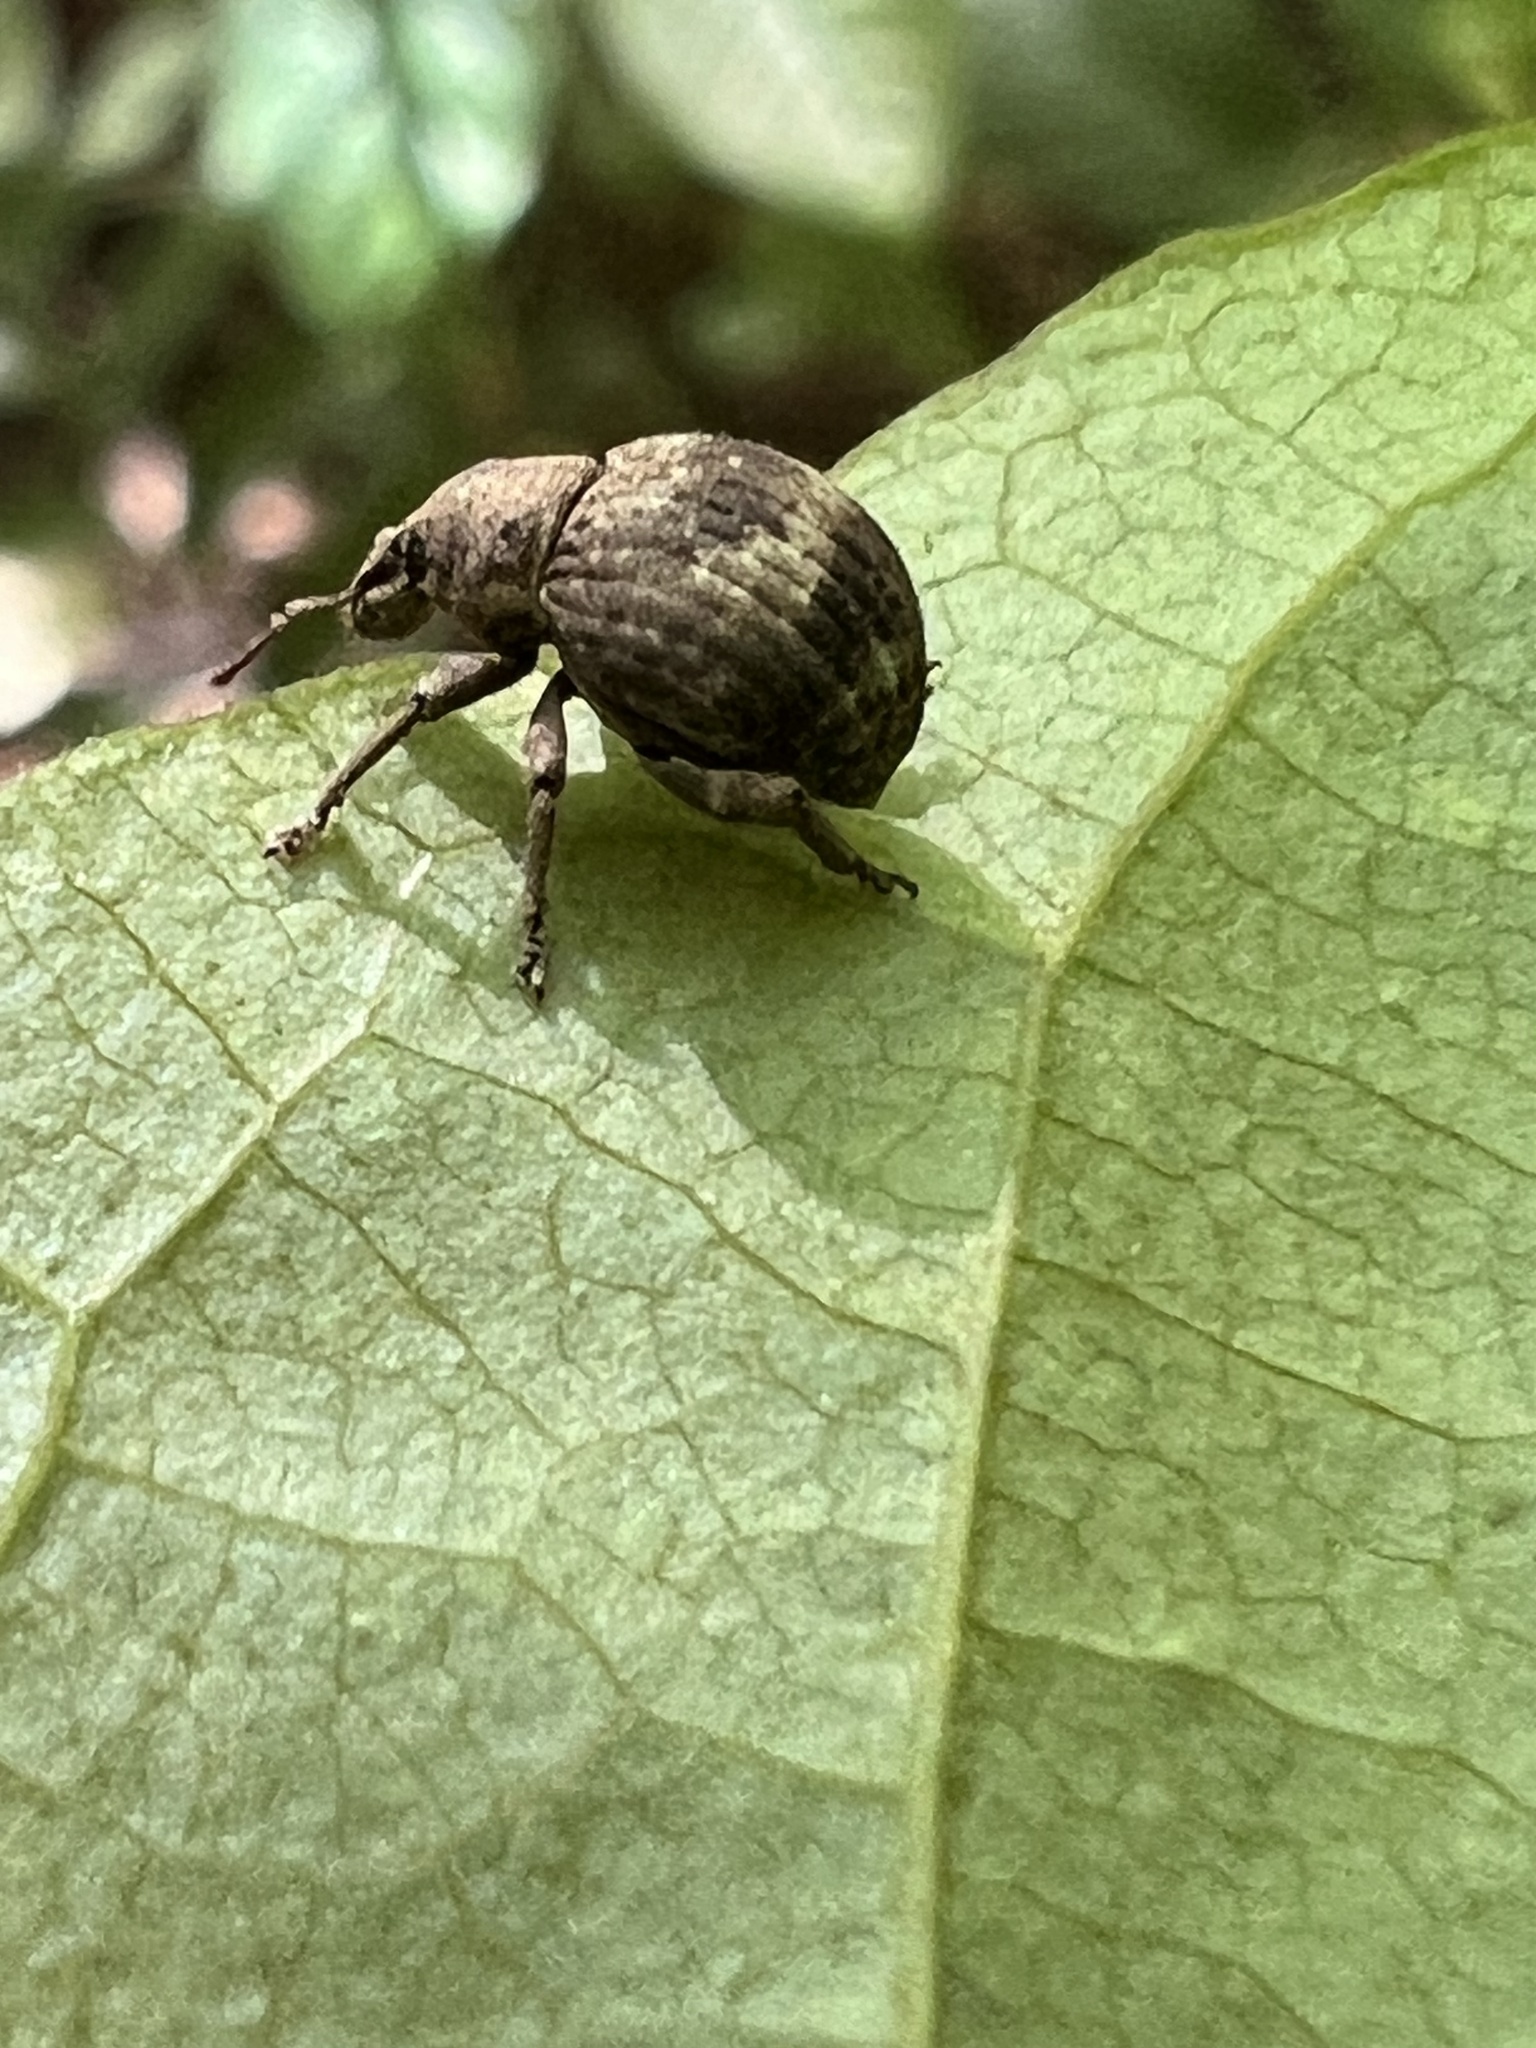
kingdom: Animalia
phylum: Arthropoda
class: Insecta
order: Coleoptera
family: Curculionidae
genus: Pseudocneorhinus
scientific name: Pseudocneorhinus bifasciatus
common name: Two-banded japanese weevil
